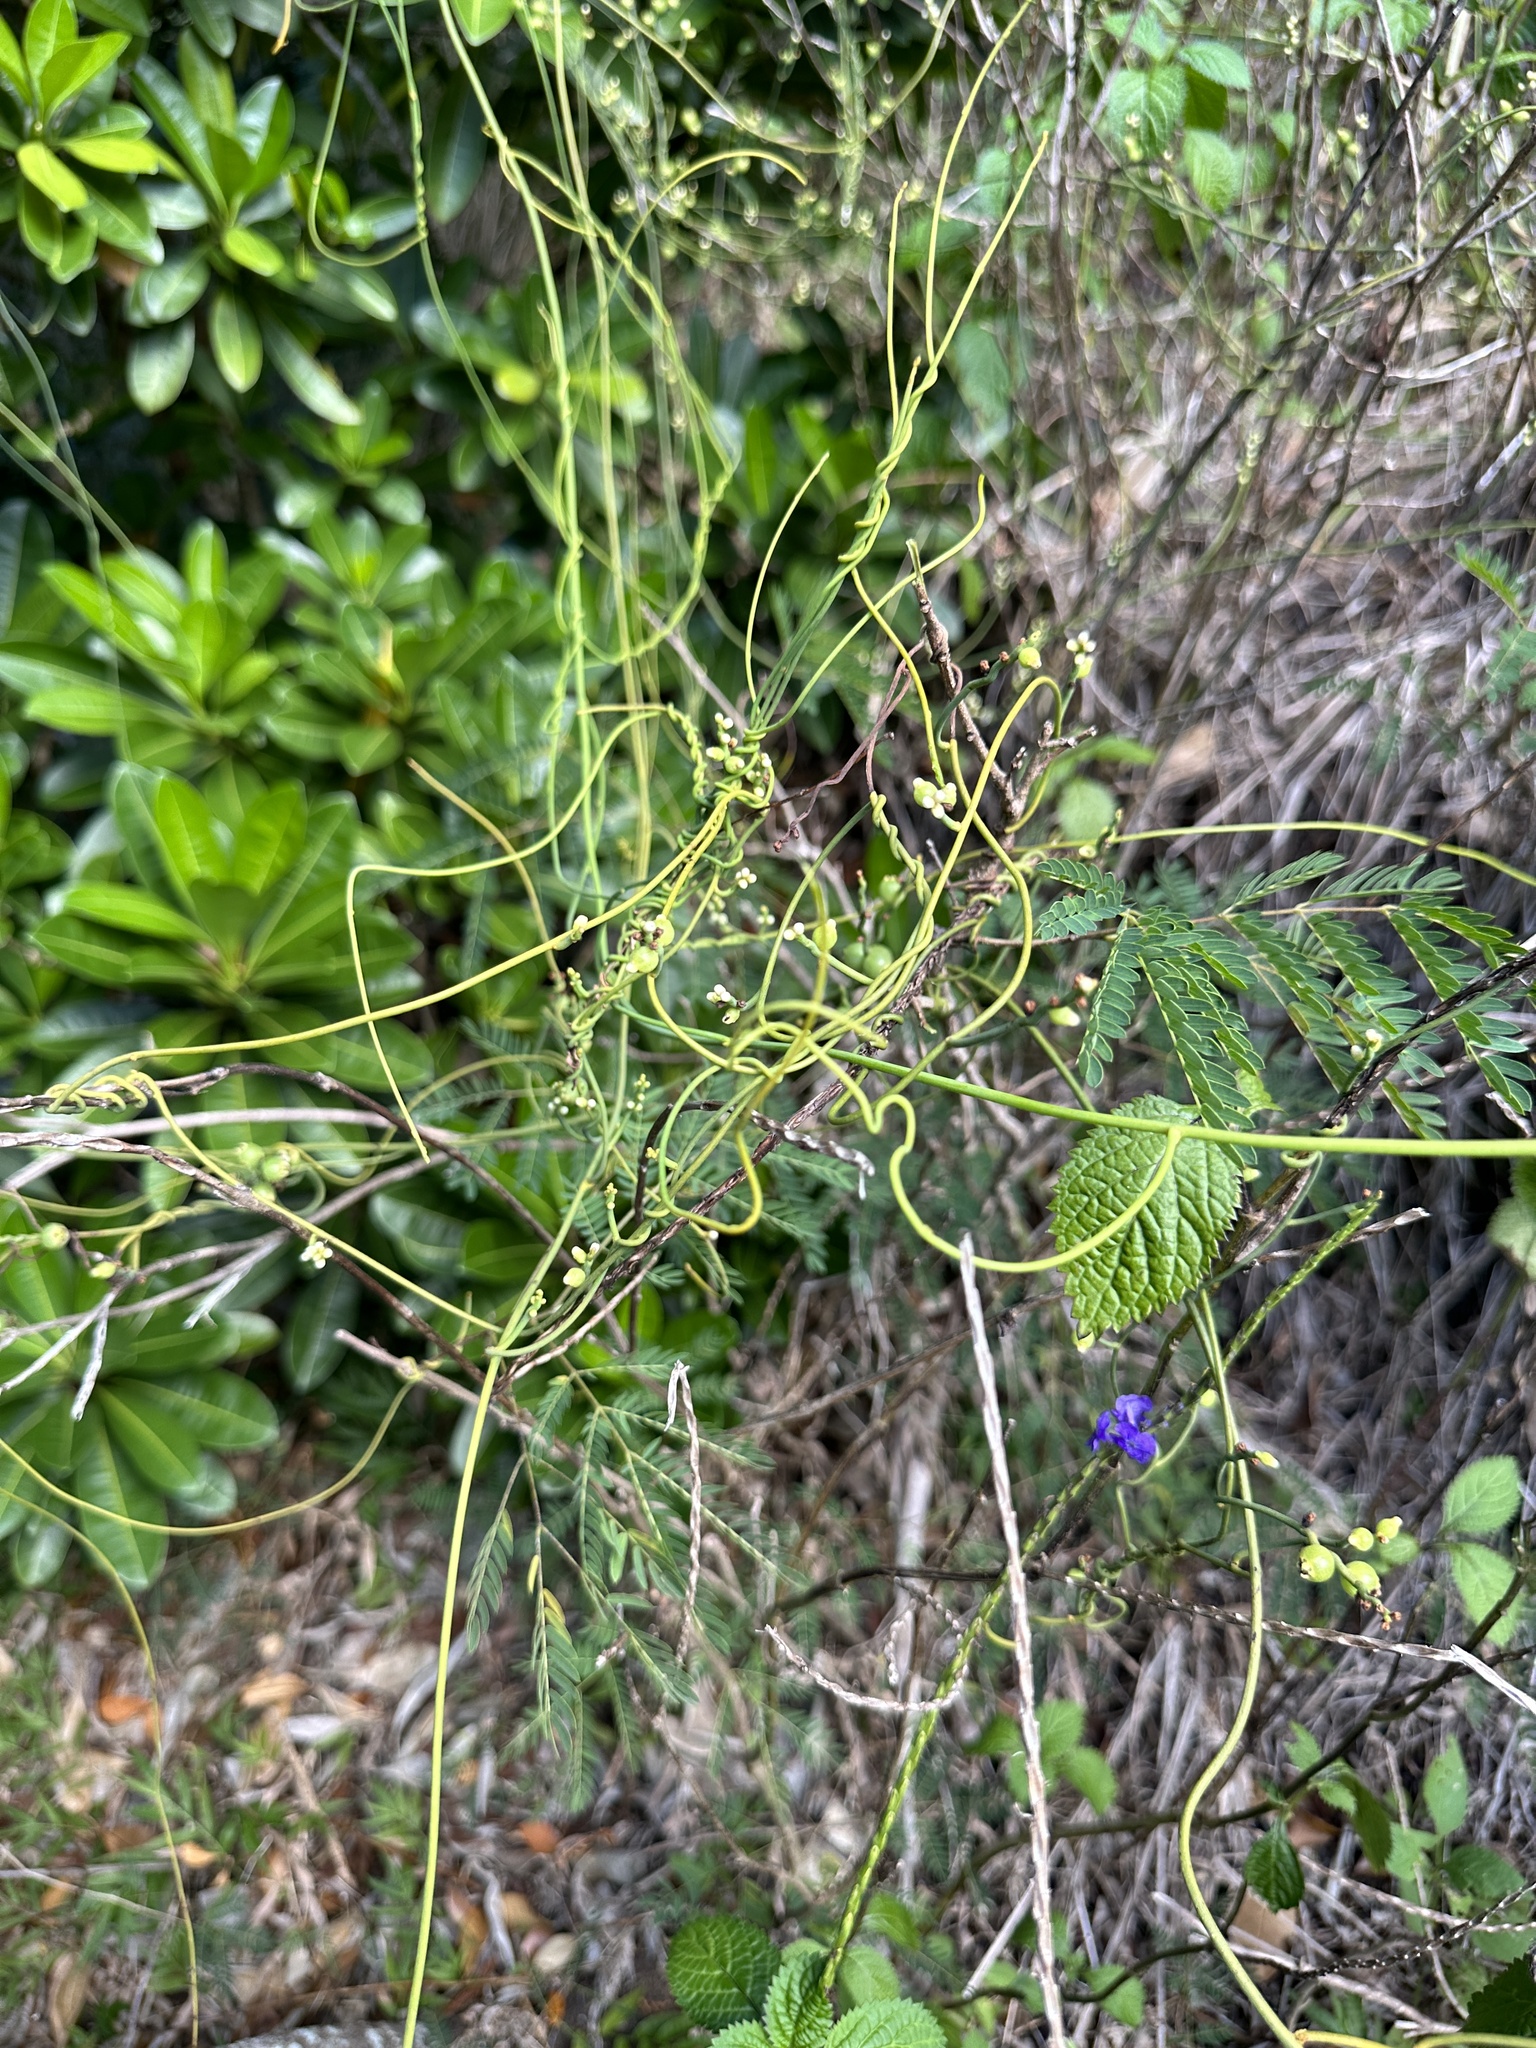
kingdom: Plantae
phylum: Tracheophyta
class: Magnoliopsida
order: Laurales
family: Lauraceae
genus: Cassytha
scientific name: Cassytha filiformis
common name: Dodder-laurel
